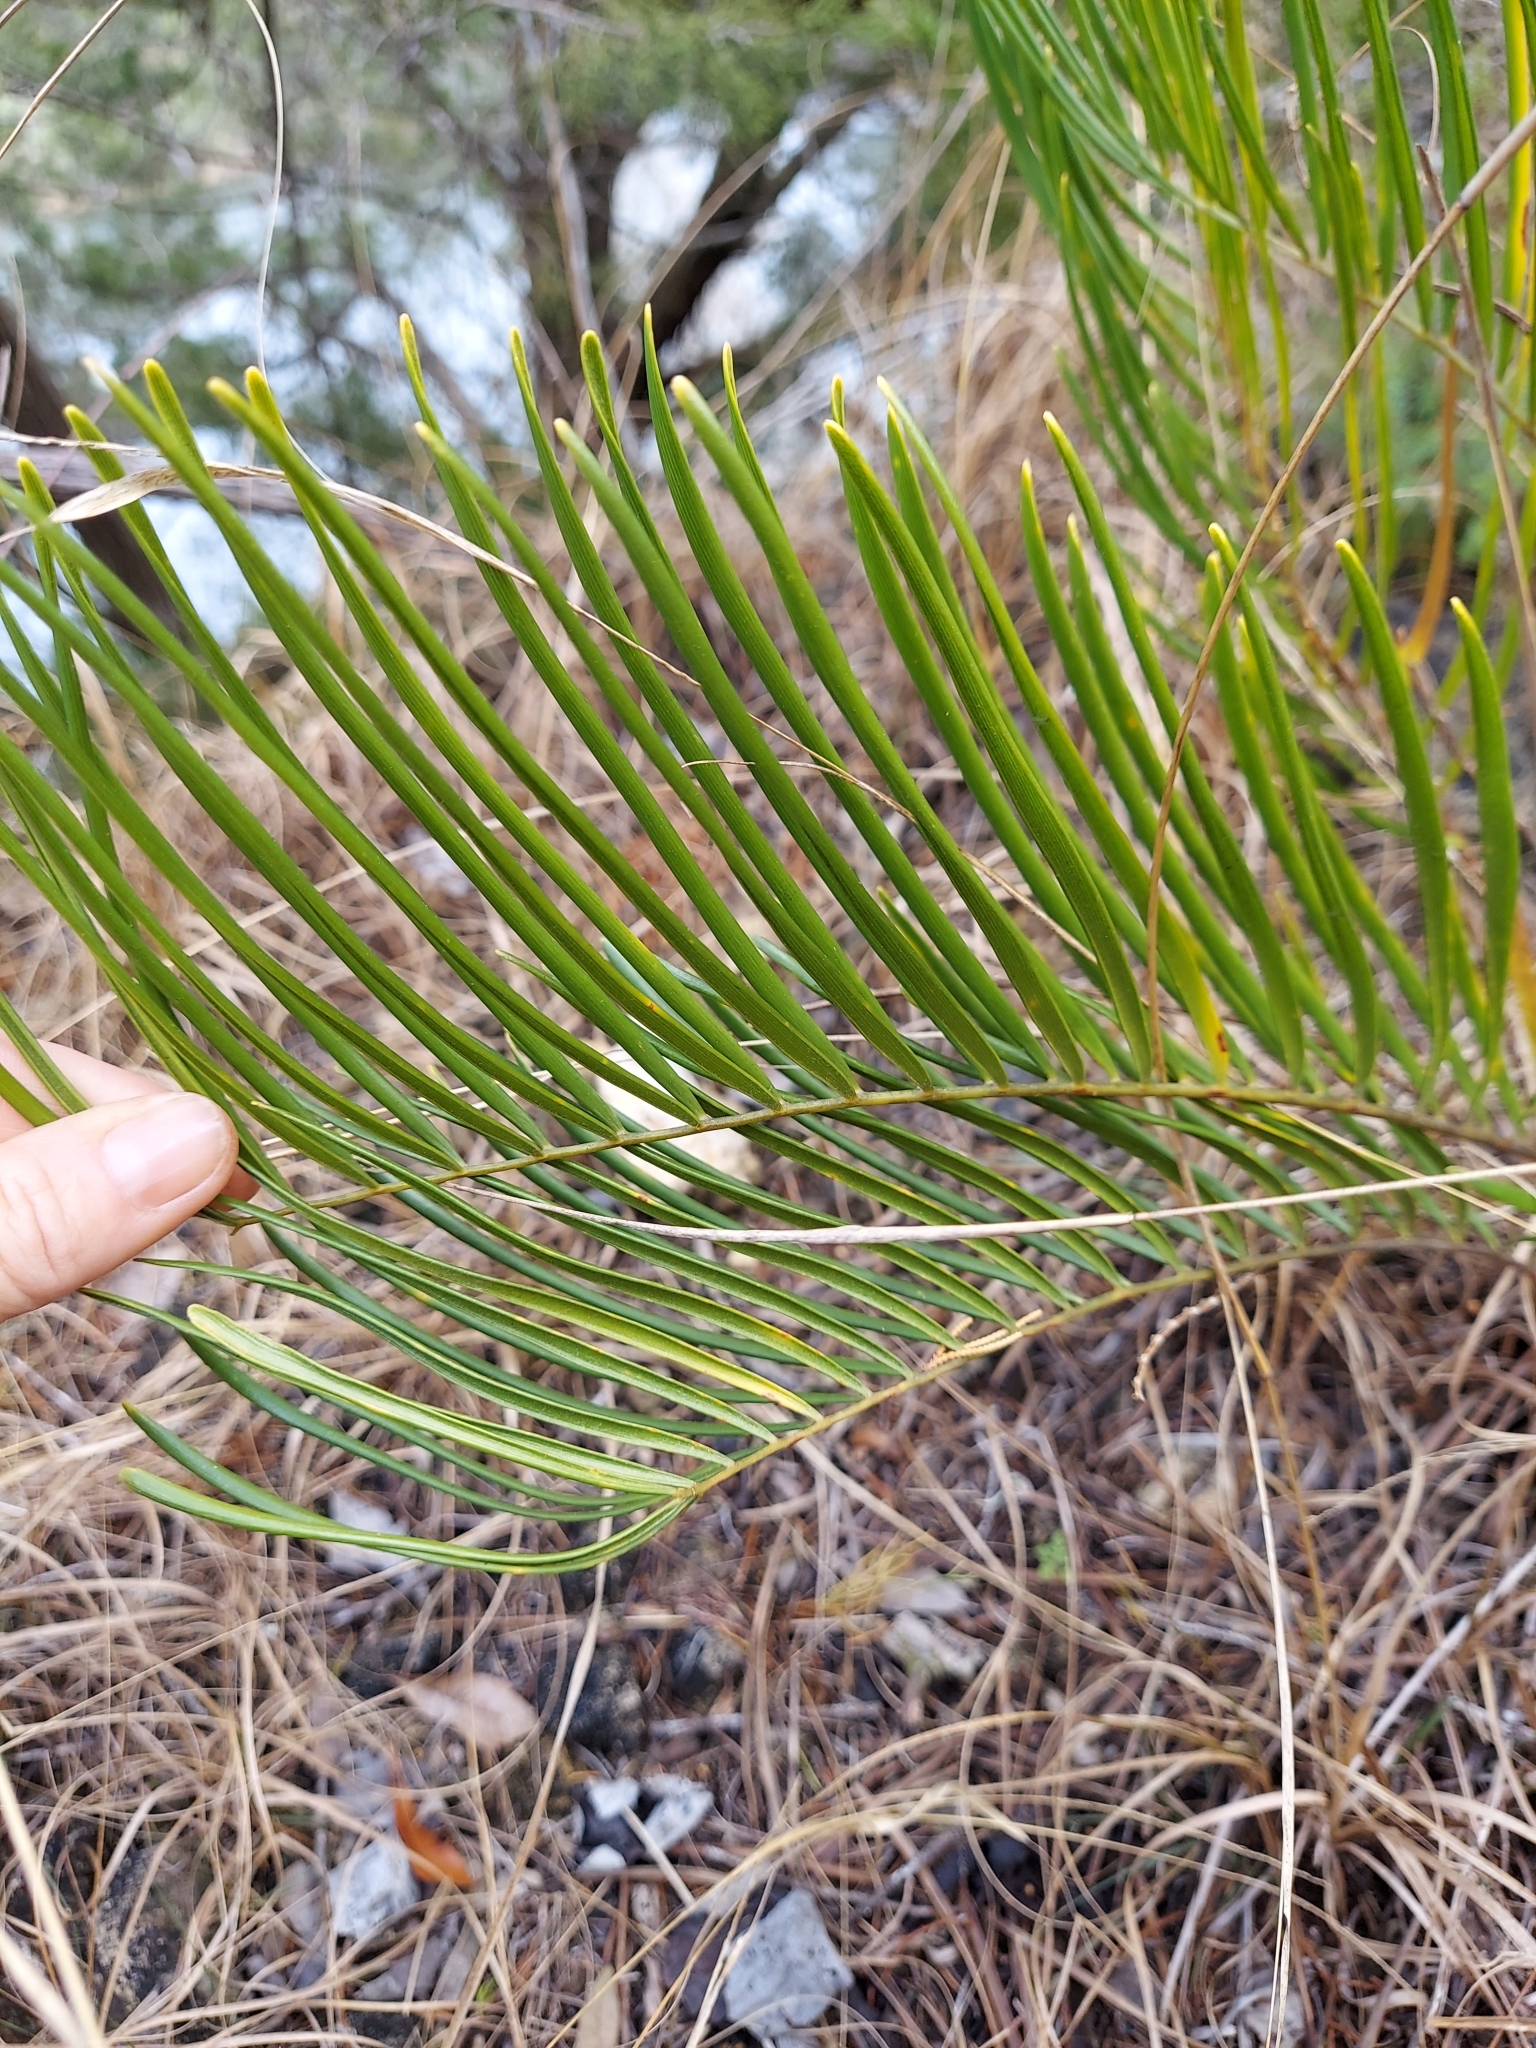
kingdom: Plantae
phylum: Tracheophyta
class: Cycadopsida
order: Cycadales
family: Zamiaceae
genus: Zamia
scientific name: Zamia integrifolia
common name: Florida arrowroot
